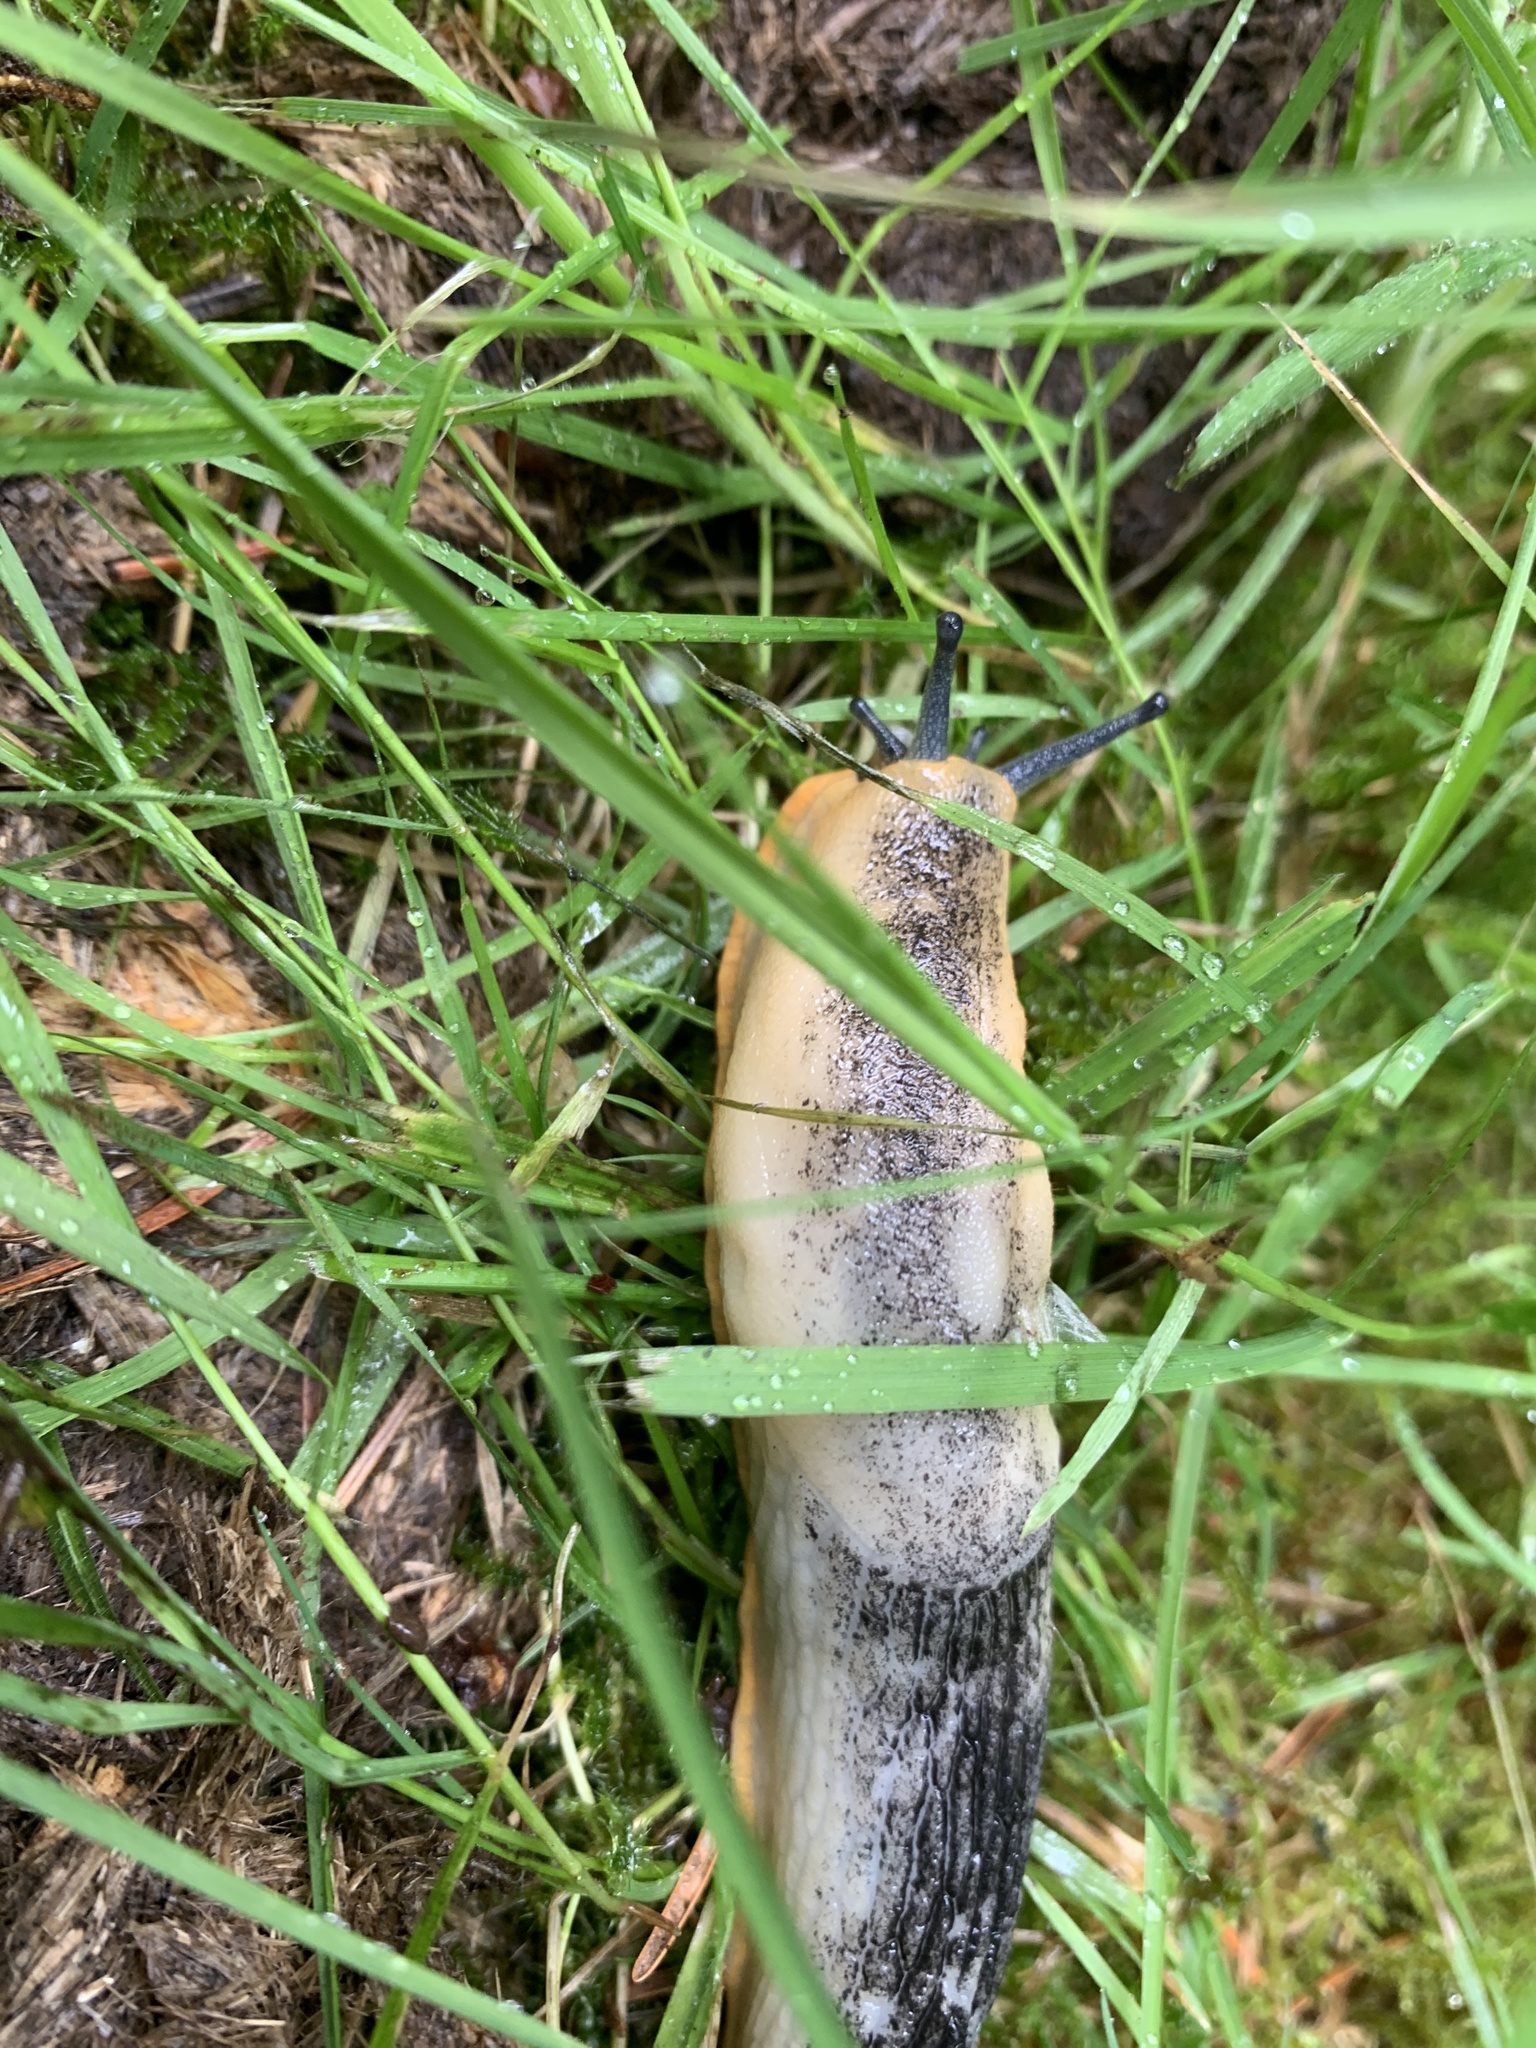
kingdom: Animalia
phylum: Mollusca
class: Gastropoda
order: Stylommatophora
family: Arionidae
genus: Arion
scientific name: Arion
